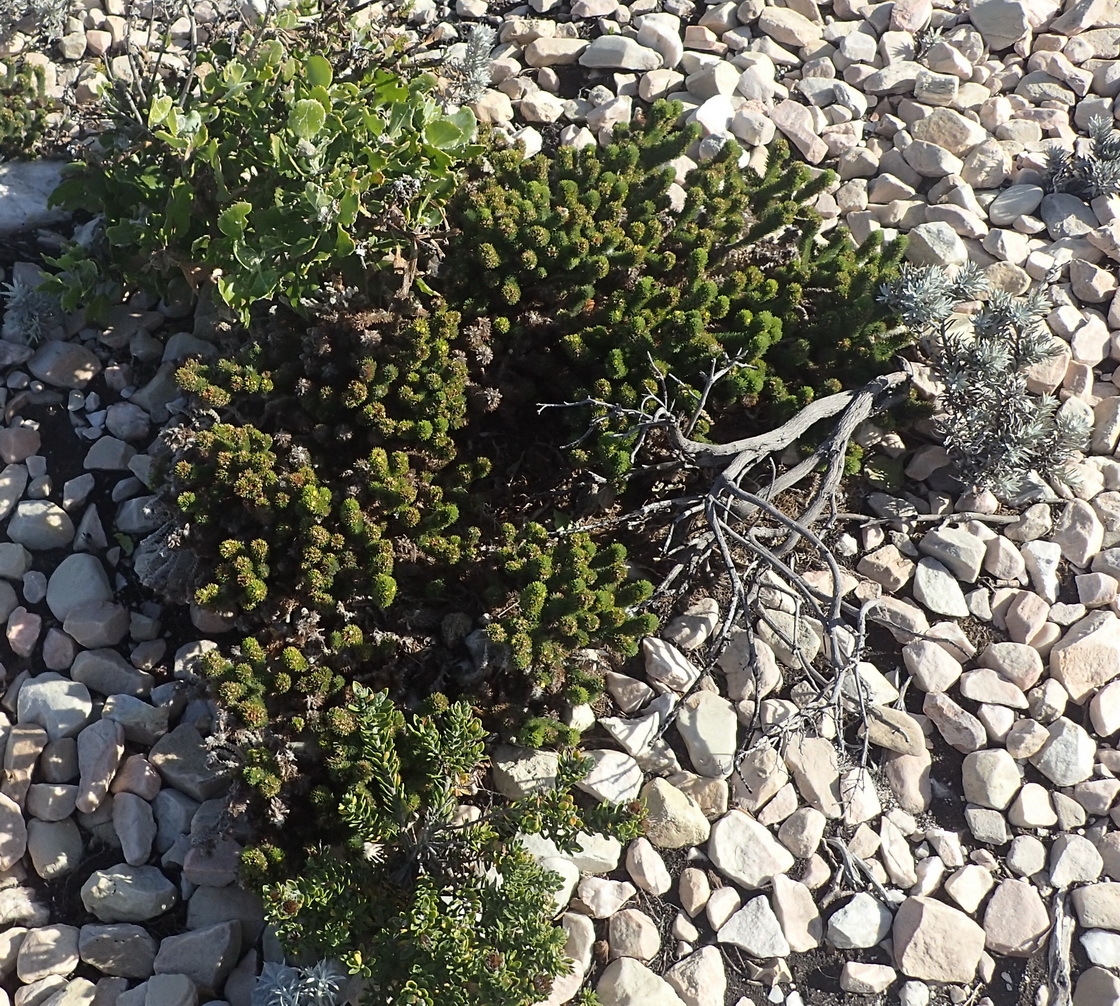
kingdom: Plantae
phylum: Tracheophyta
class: Magnoliopsida
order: Fabales
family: Fabaceae
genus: Aspalathus
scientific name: Aspalathus alopecurus
